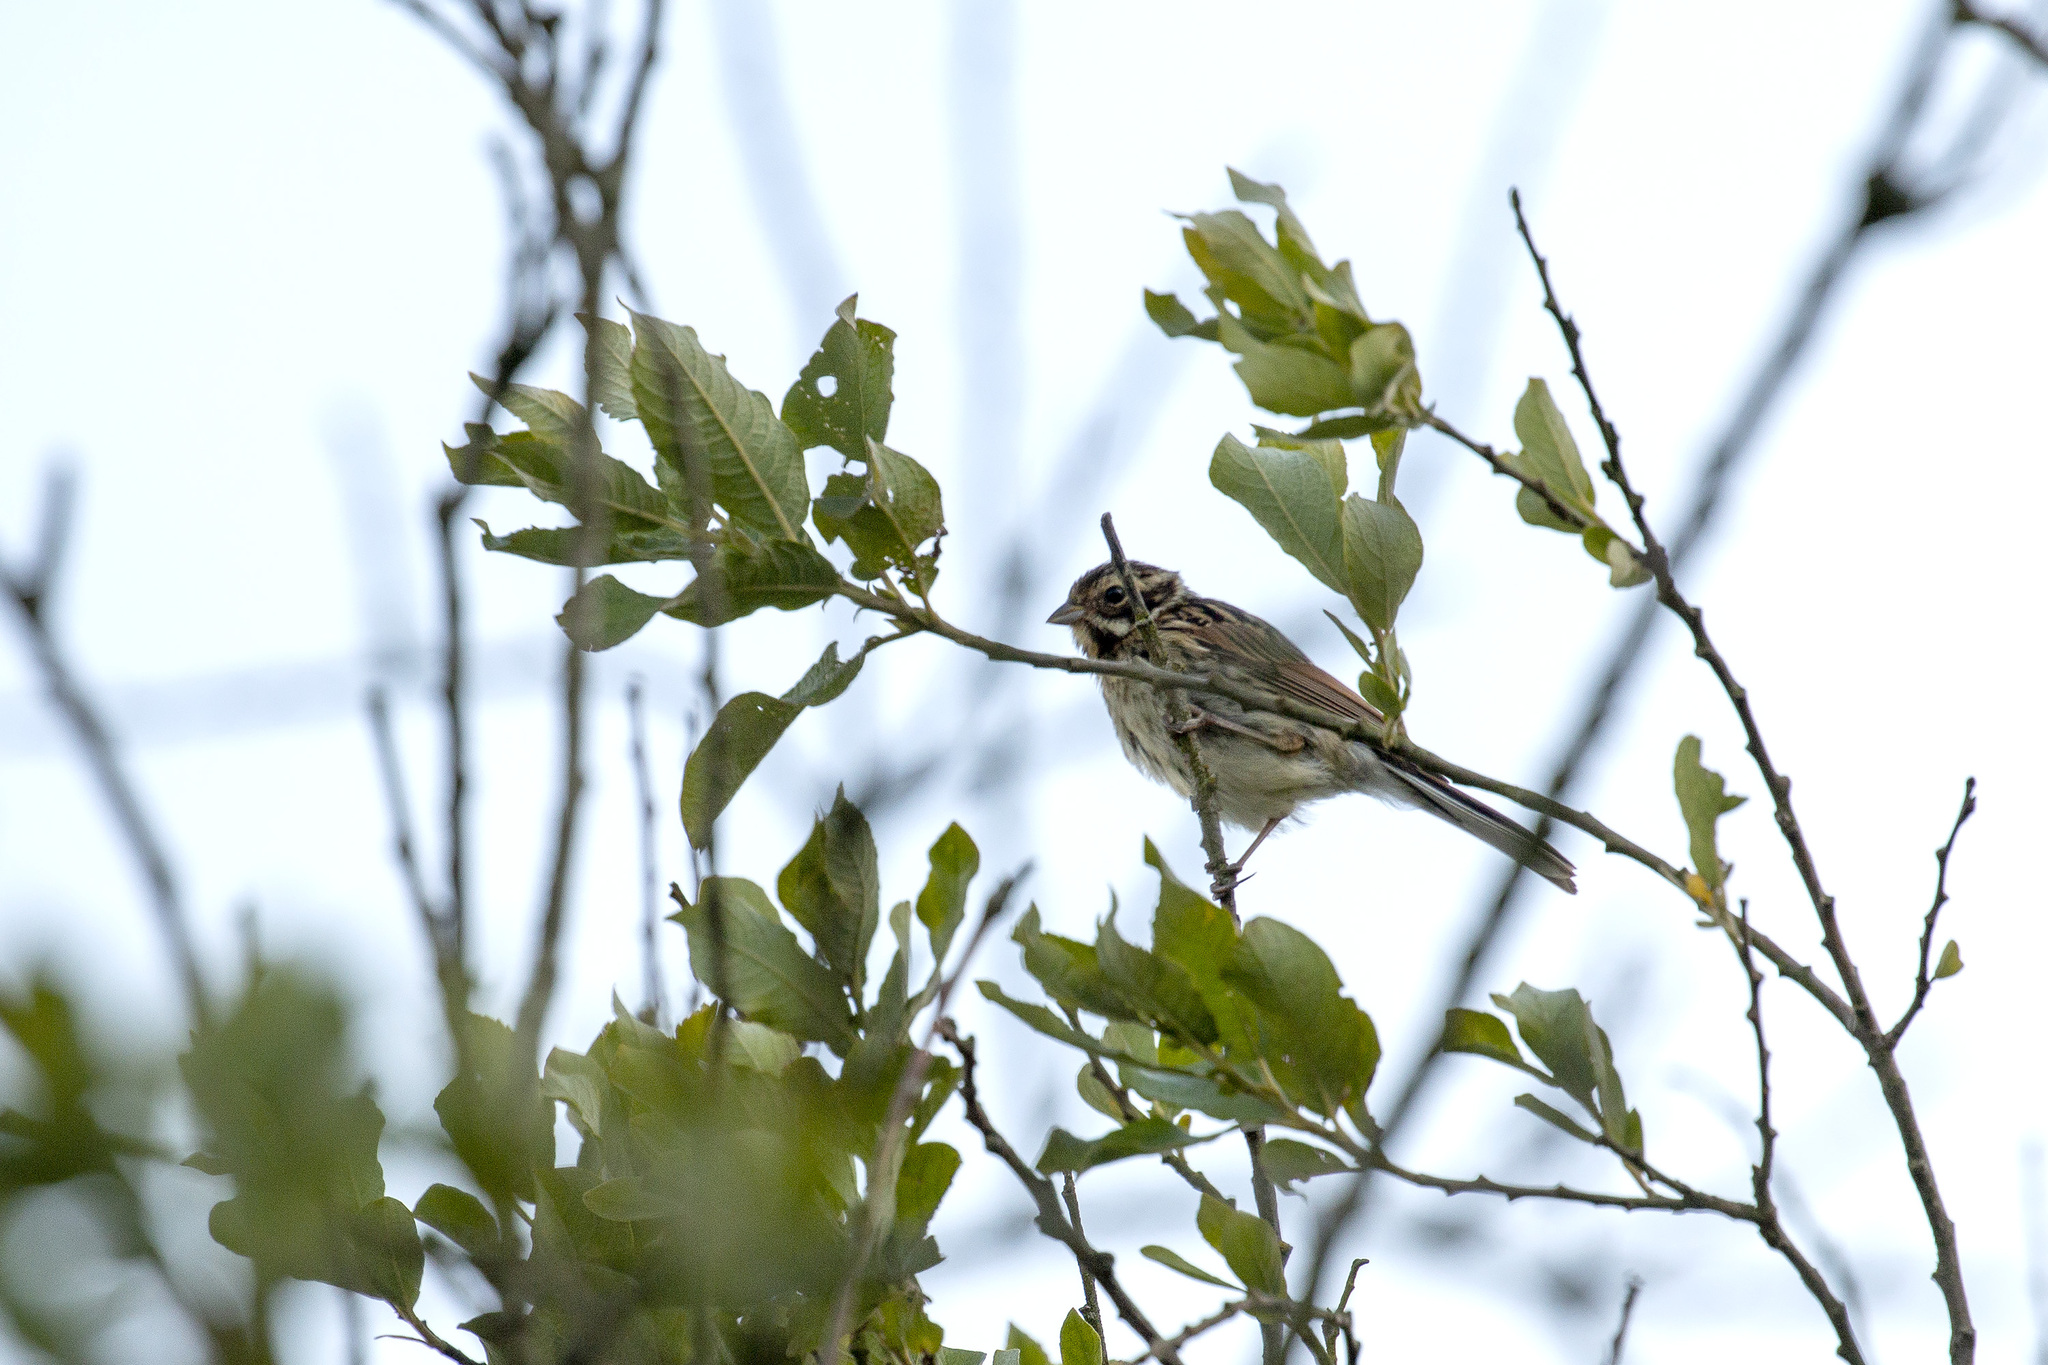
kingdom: Animalia
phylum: Chordata
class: Aves
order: Passeriformes
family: Emberizidae
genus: Emberiza
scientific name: Emberiza schoeniclus
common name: Reed bunting
